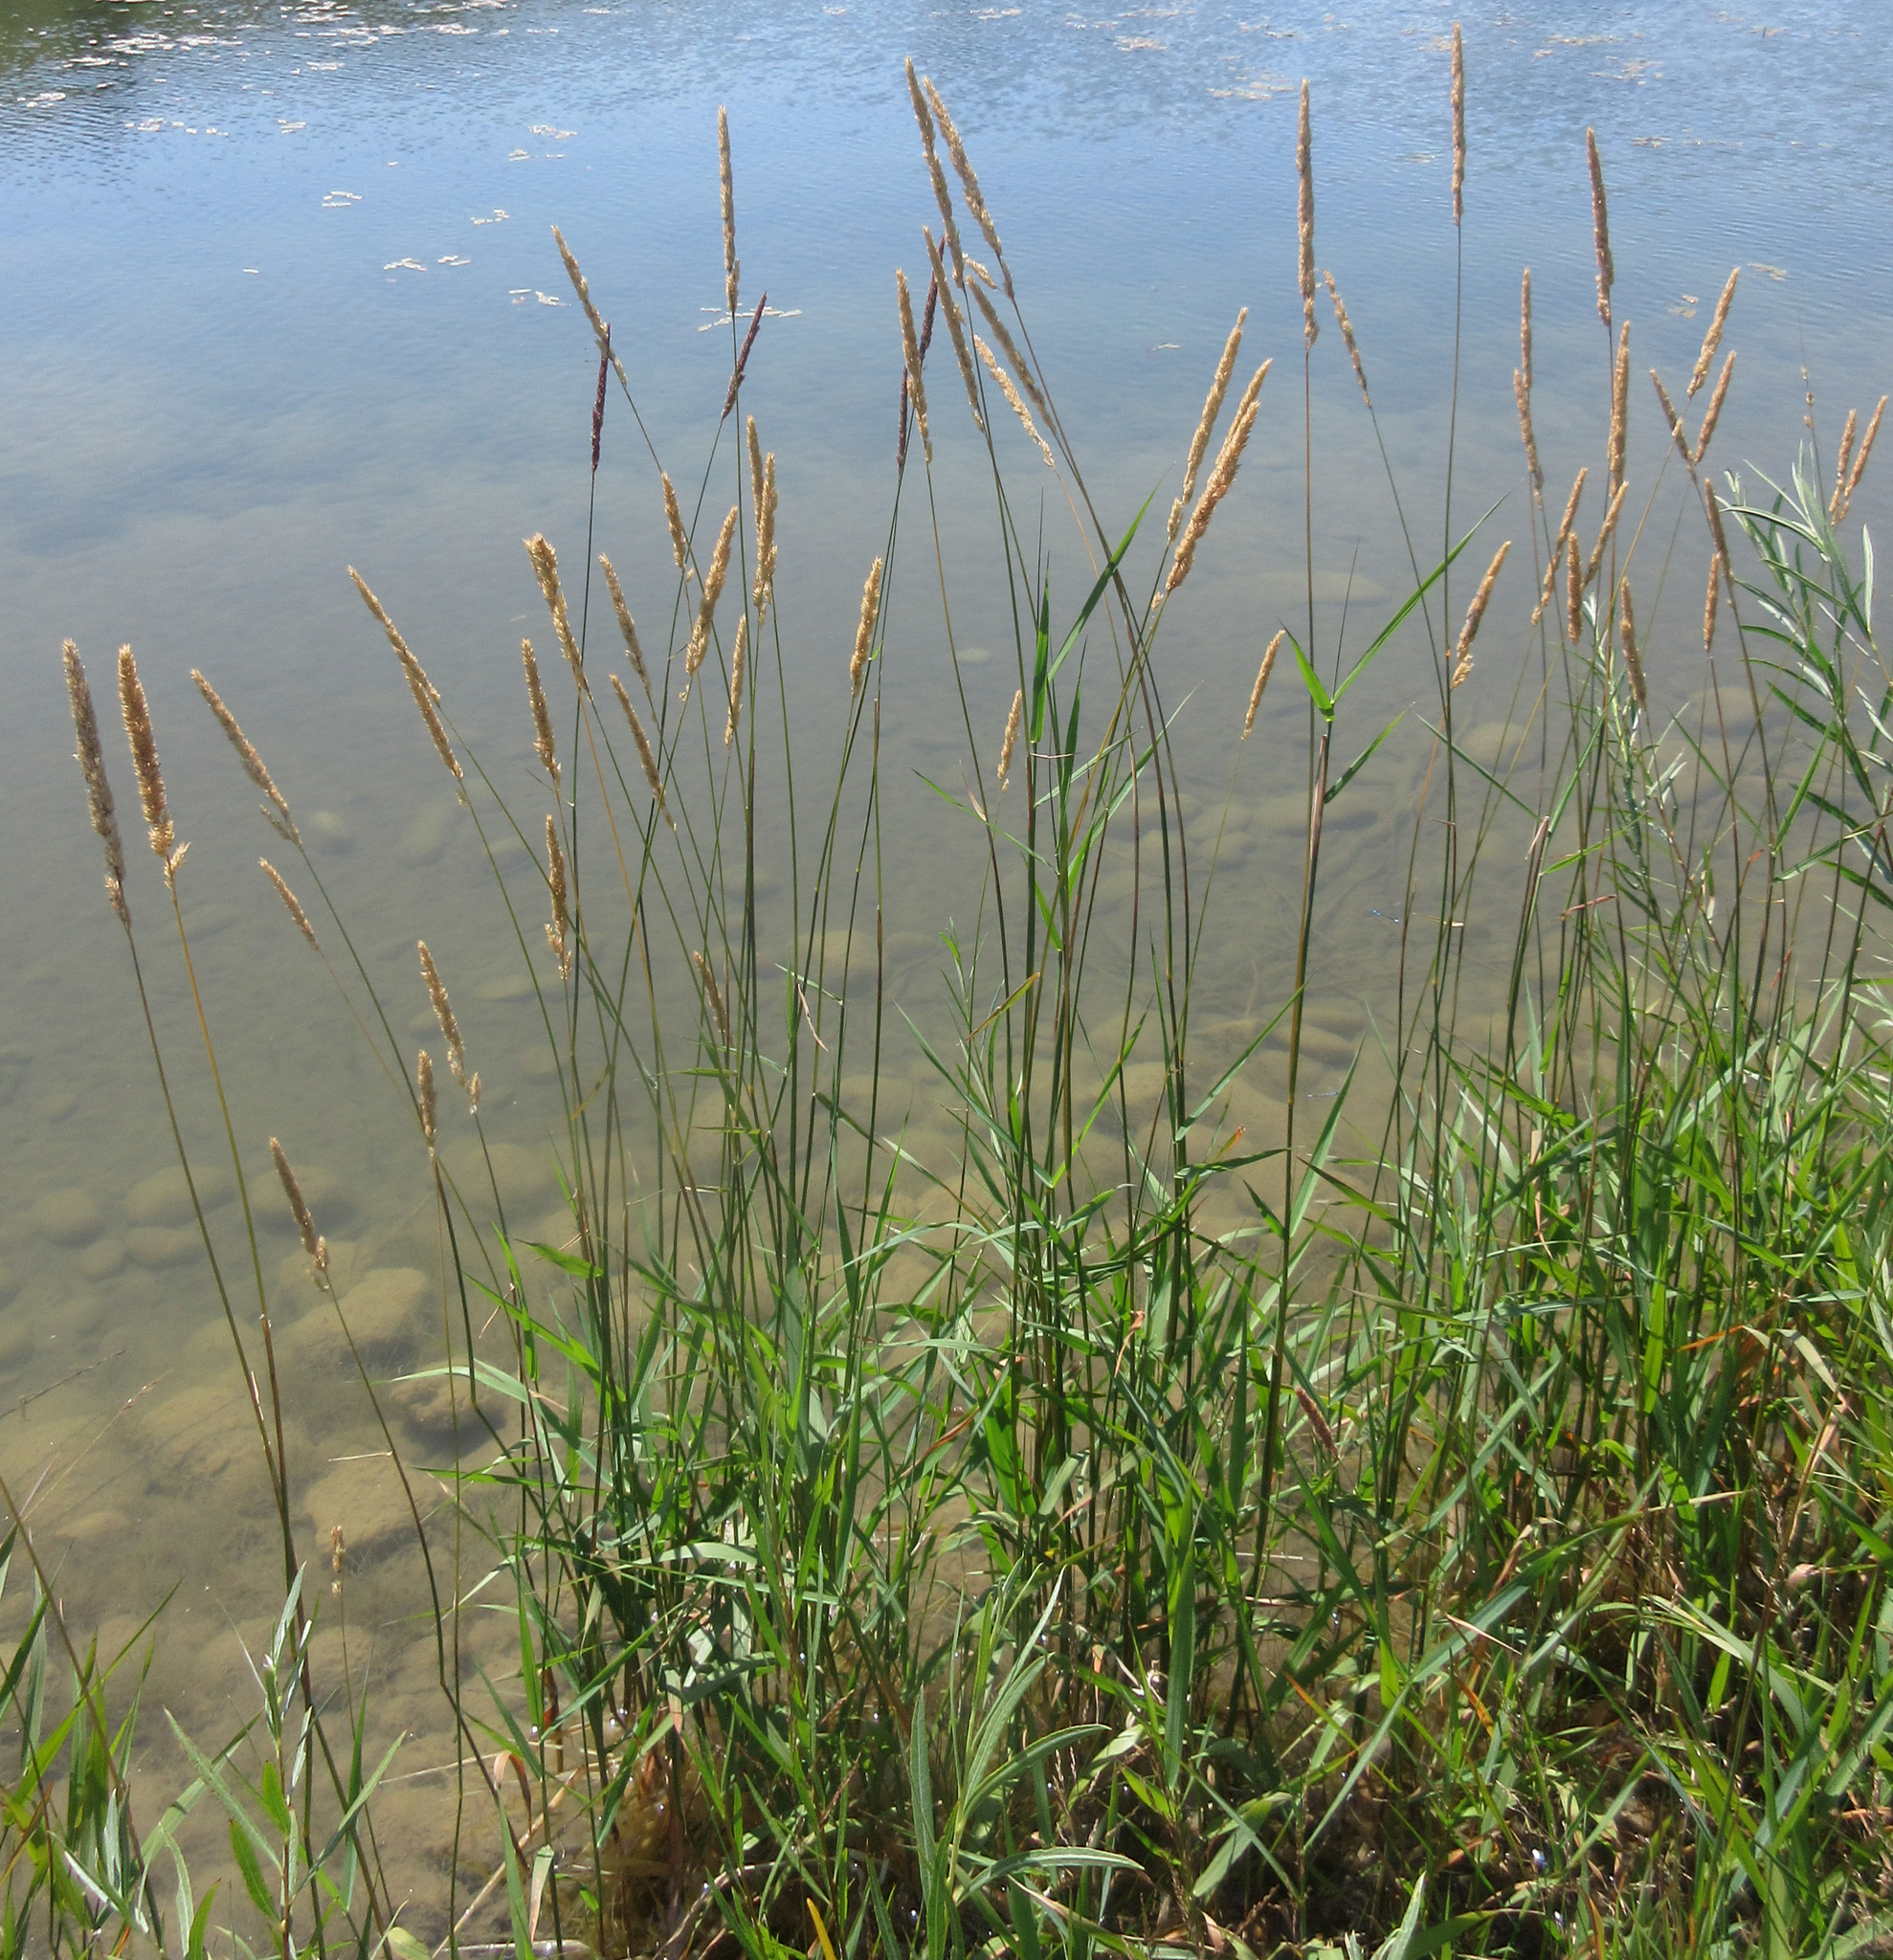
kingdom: Plantae
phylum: Tracheophyta
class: Liliopsida
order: Poales
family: Poaceae
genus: Phalaris
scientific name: Phalaris arundinacea
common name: Reed canary-grass
